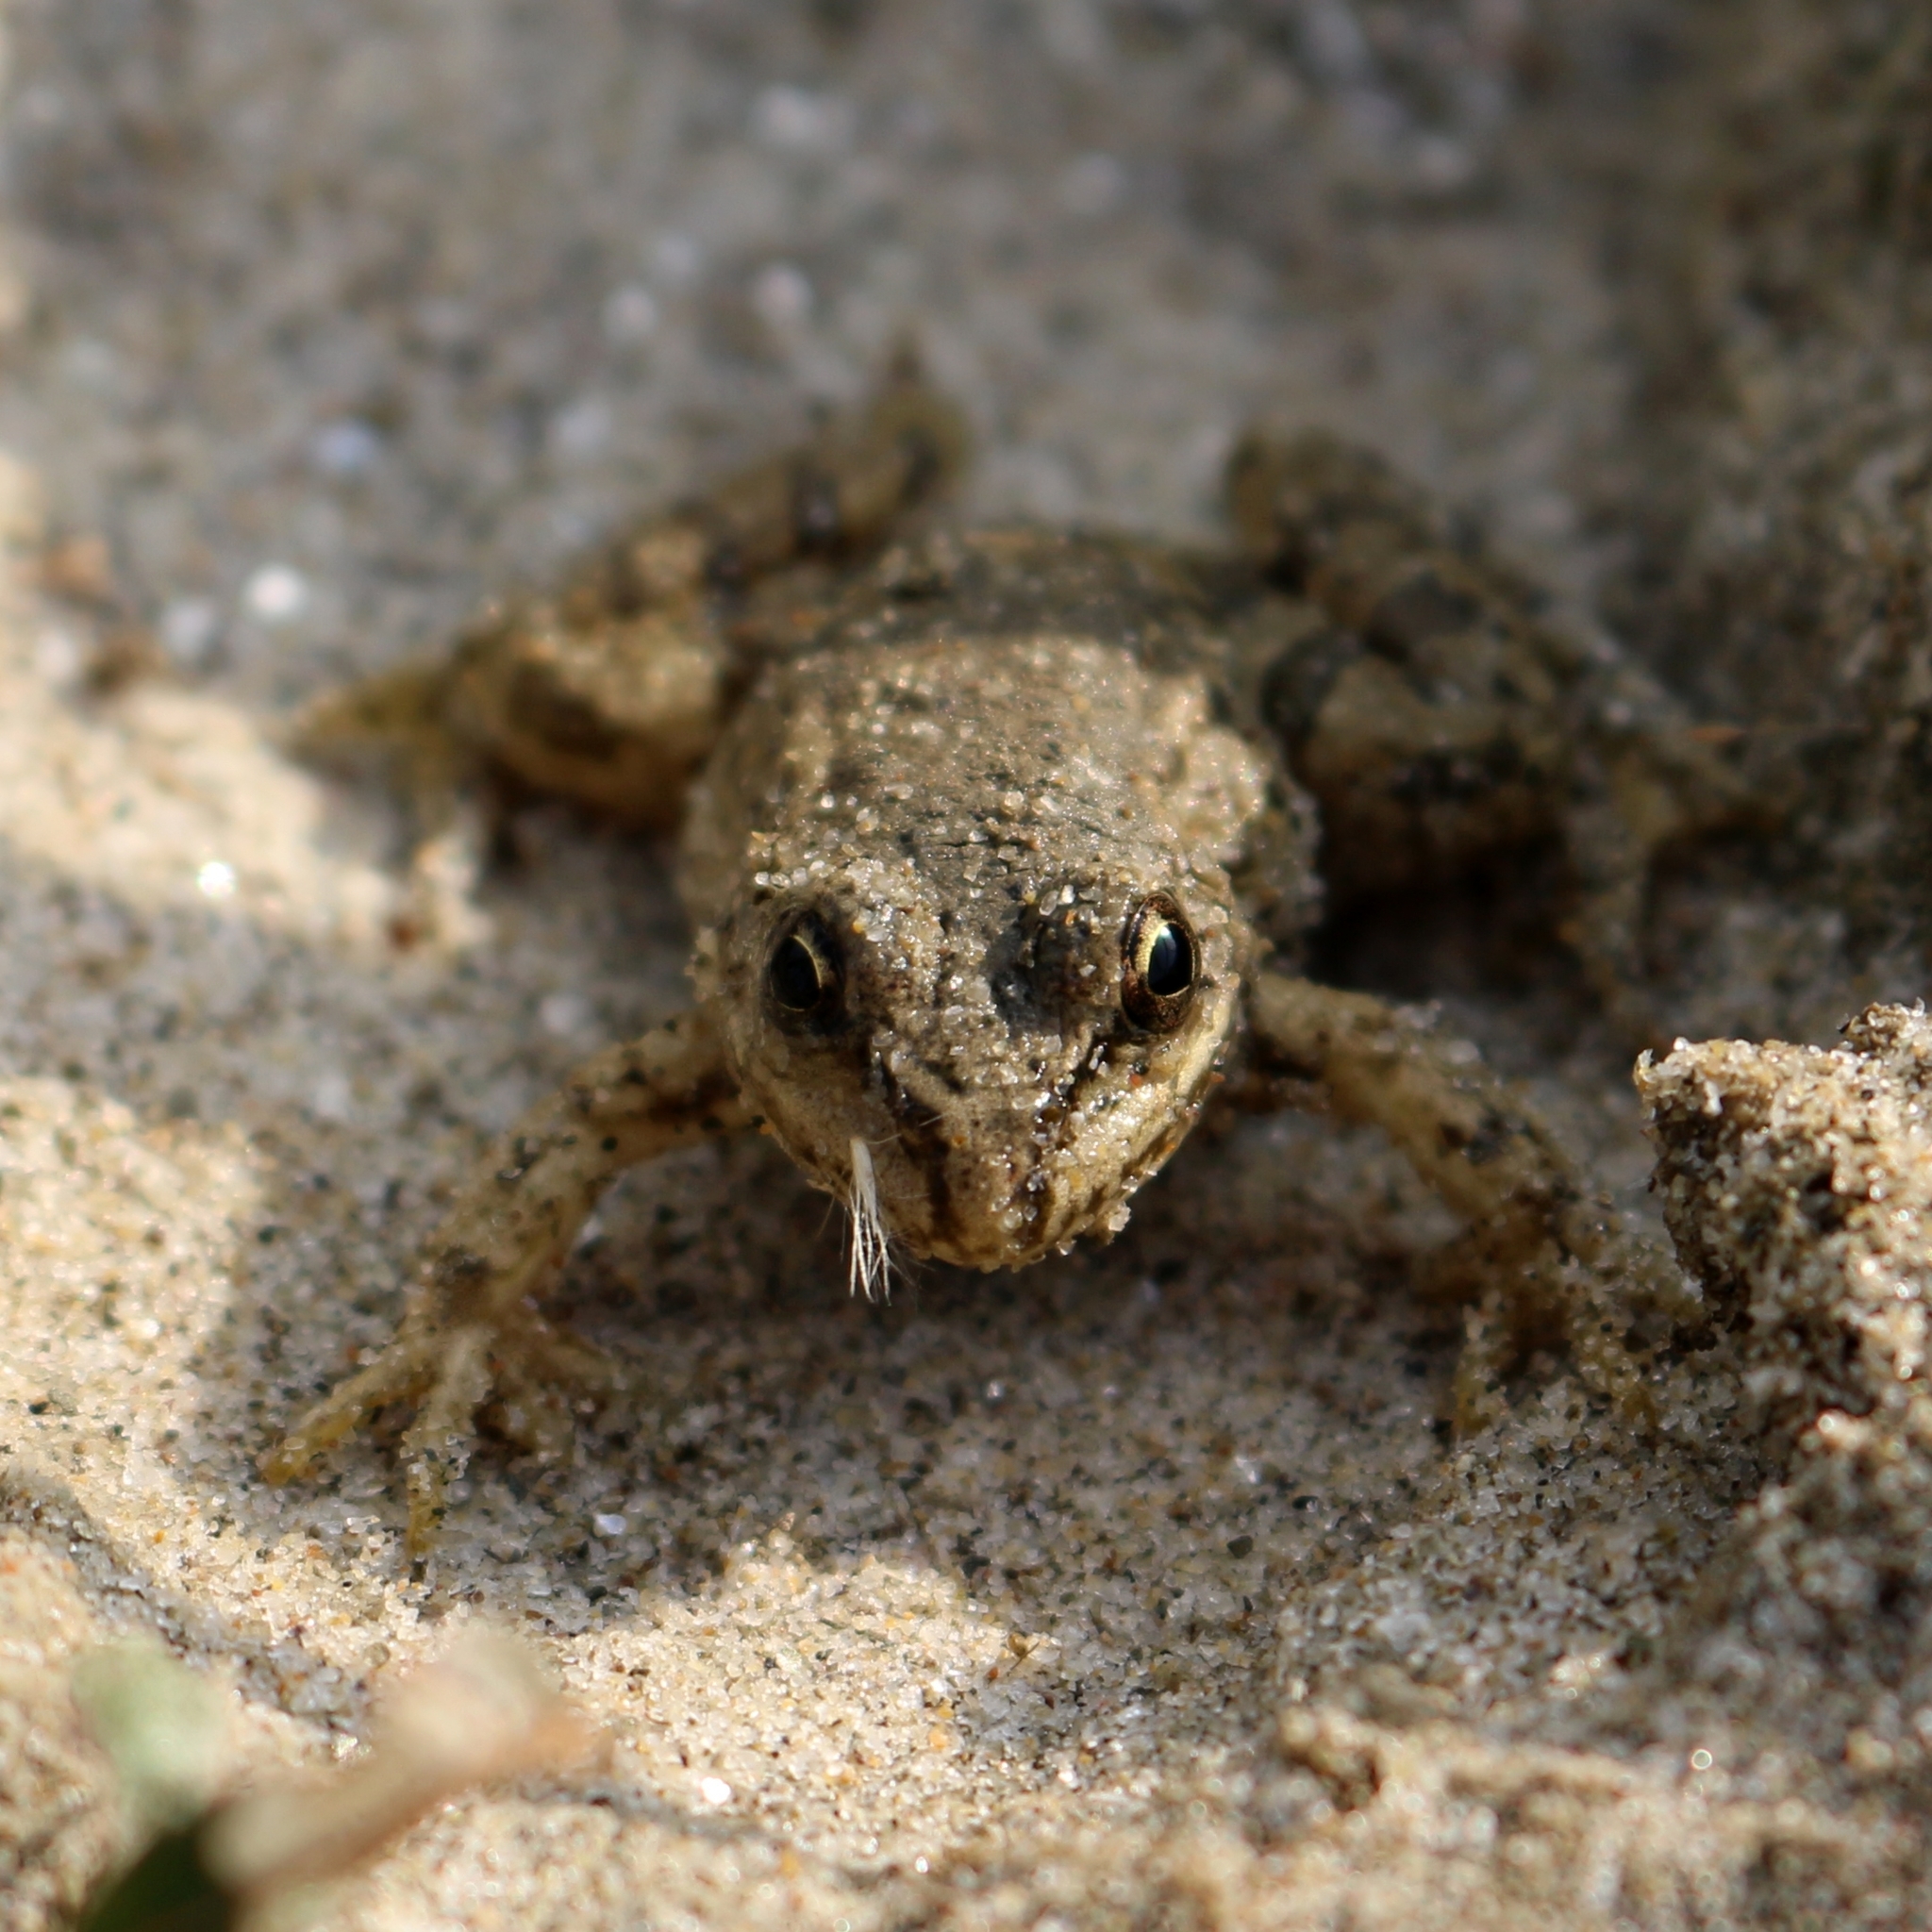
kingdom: Animalia
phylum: Chordata
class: Amphibia
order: Anura
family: Ranidae
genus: Pelophylax
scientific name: Pelophylax ridibundus
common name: Marsh frog
